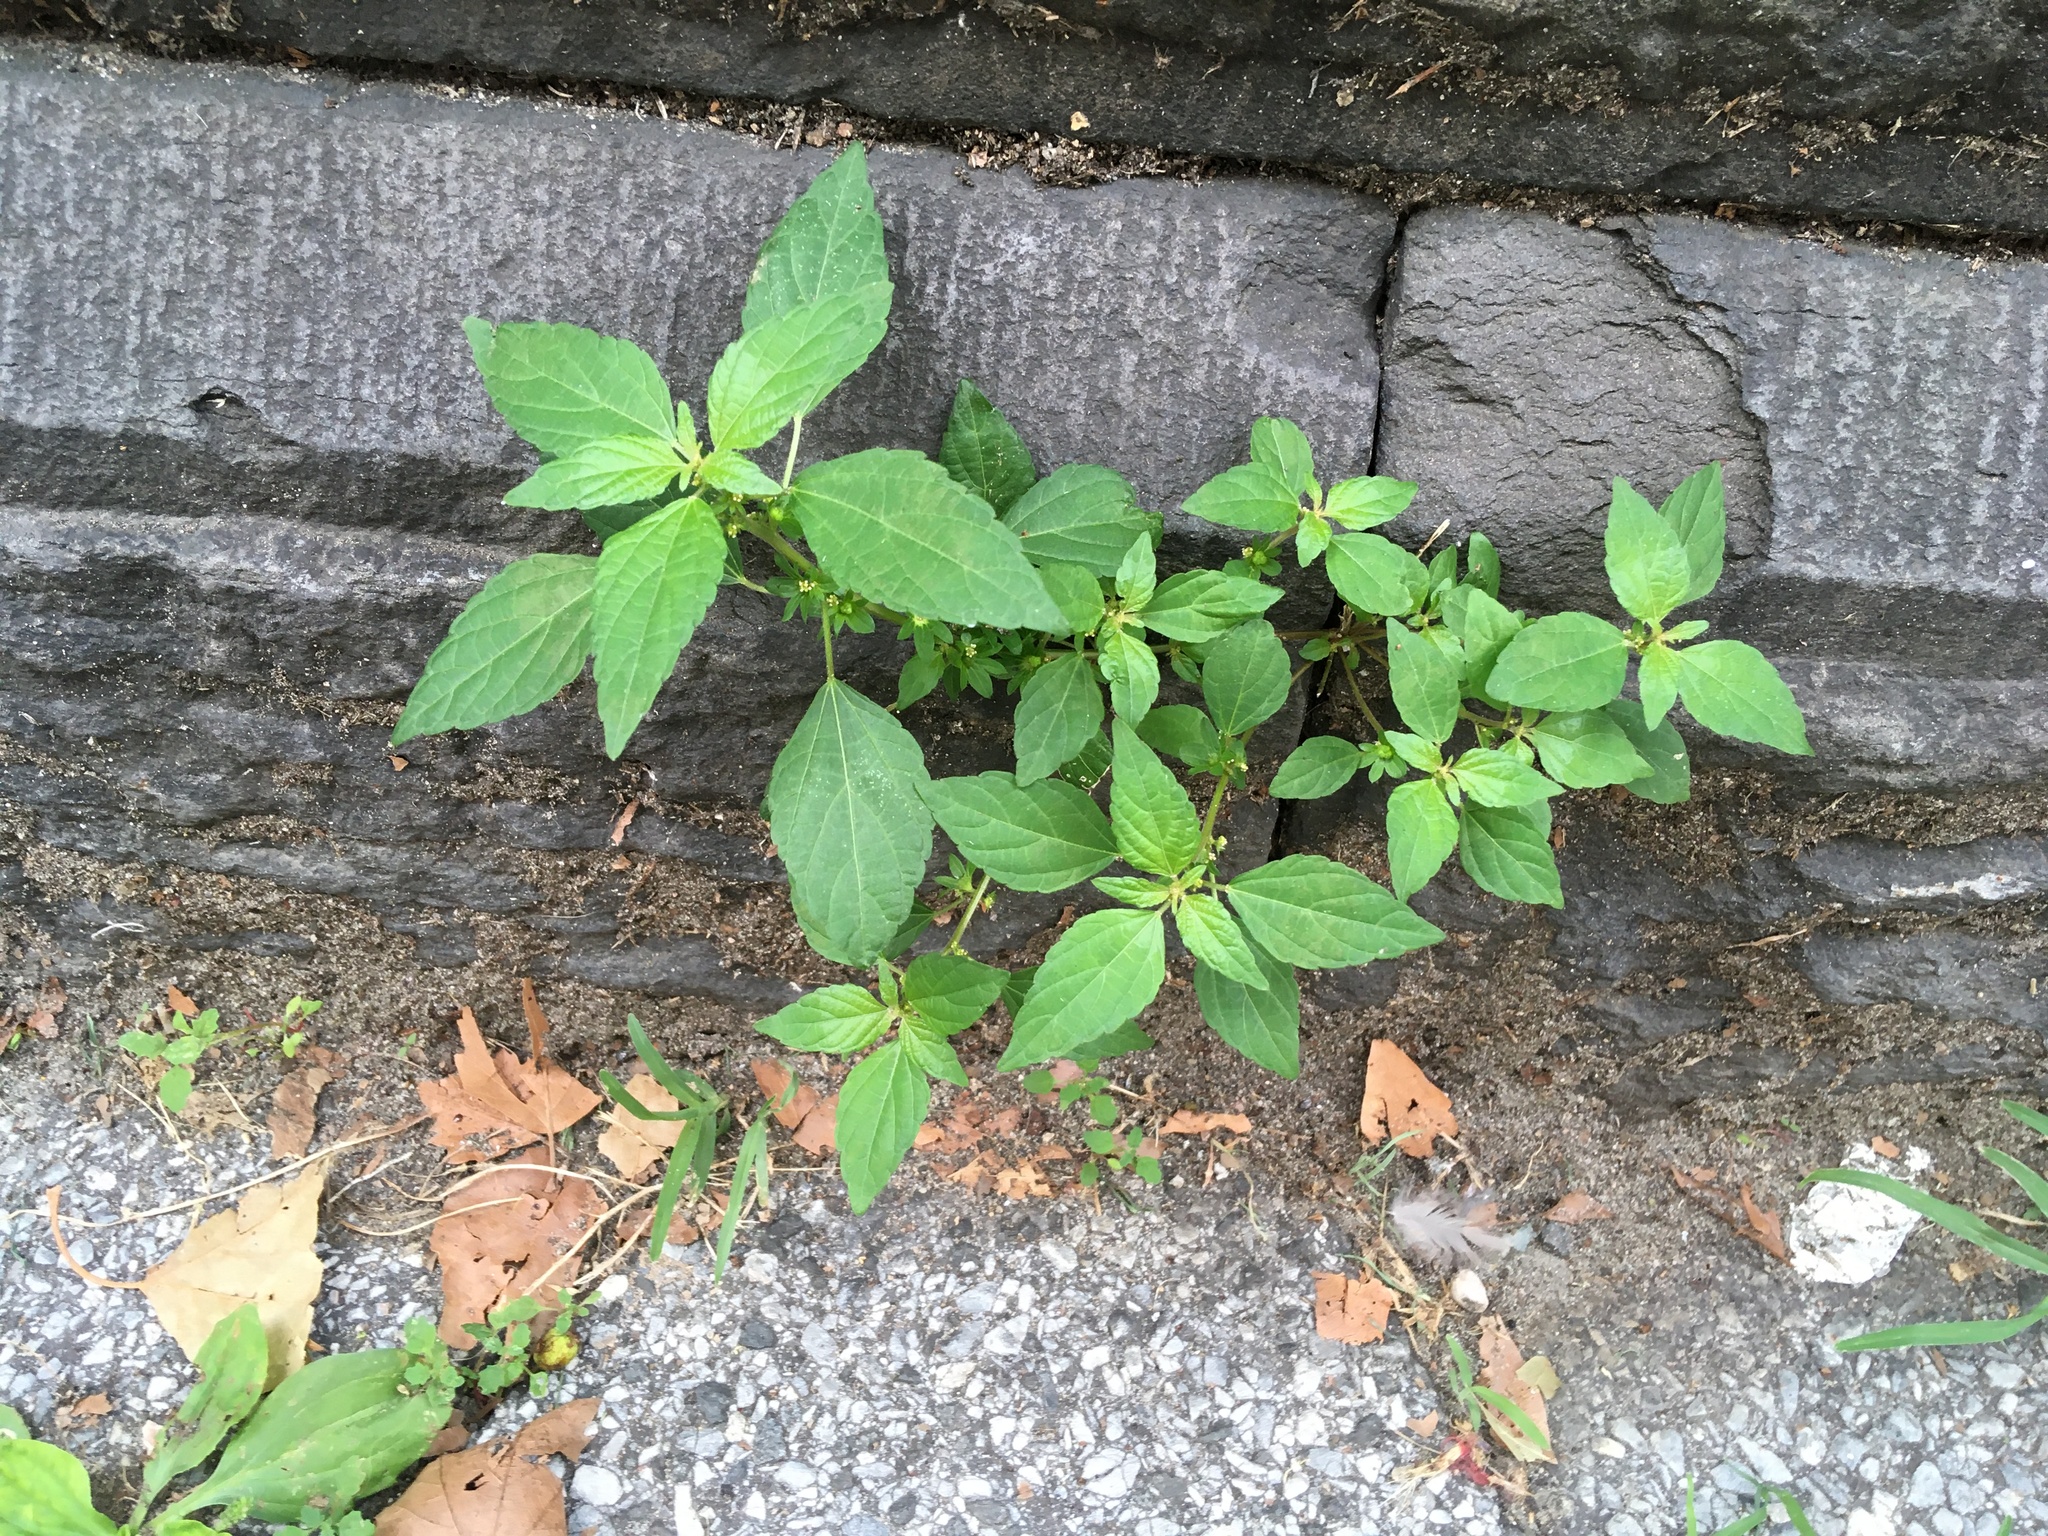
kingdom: Plantae
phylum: Tracheophyta
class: Magnoliopsida
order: Malpighiales
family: Euphorbiaceae
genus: Acalypha
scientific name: Acalypha rhomboidea
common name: Rhombic copperleaf
